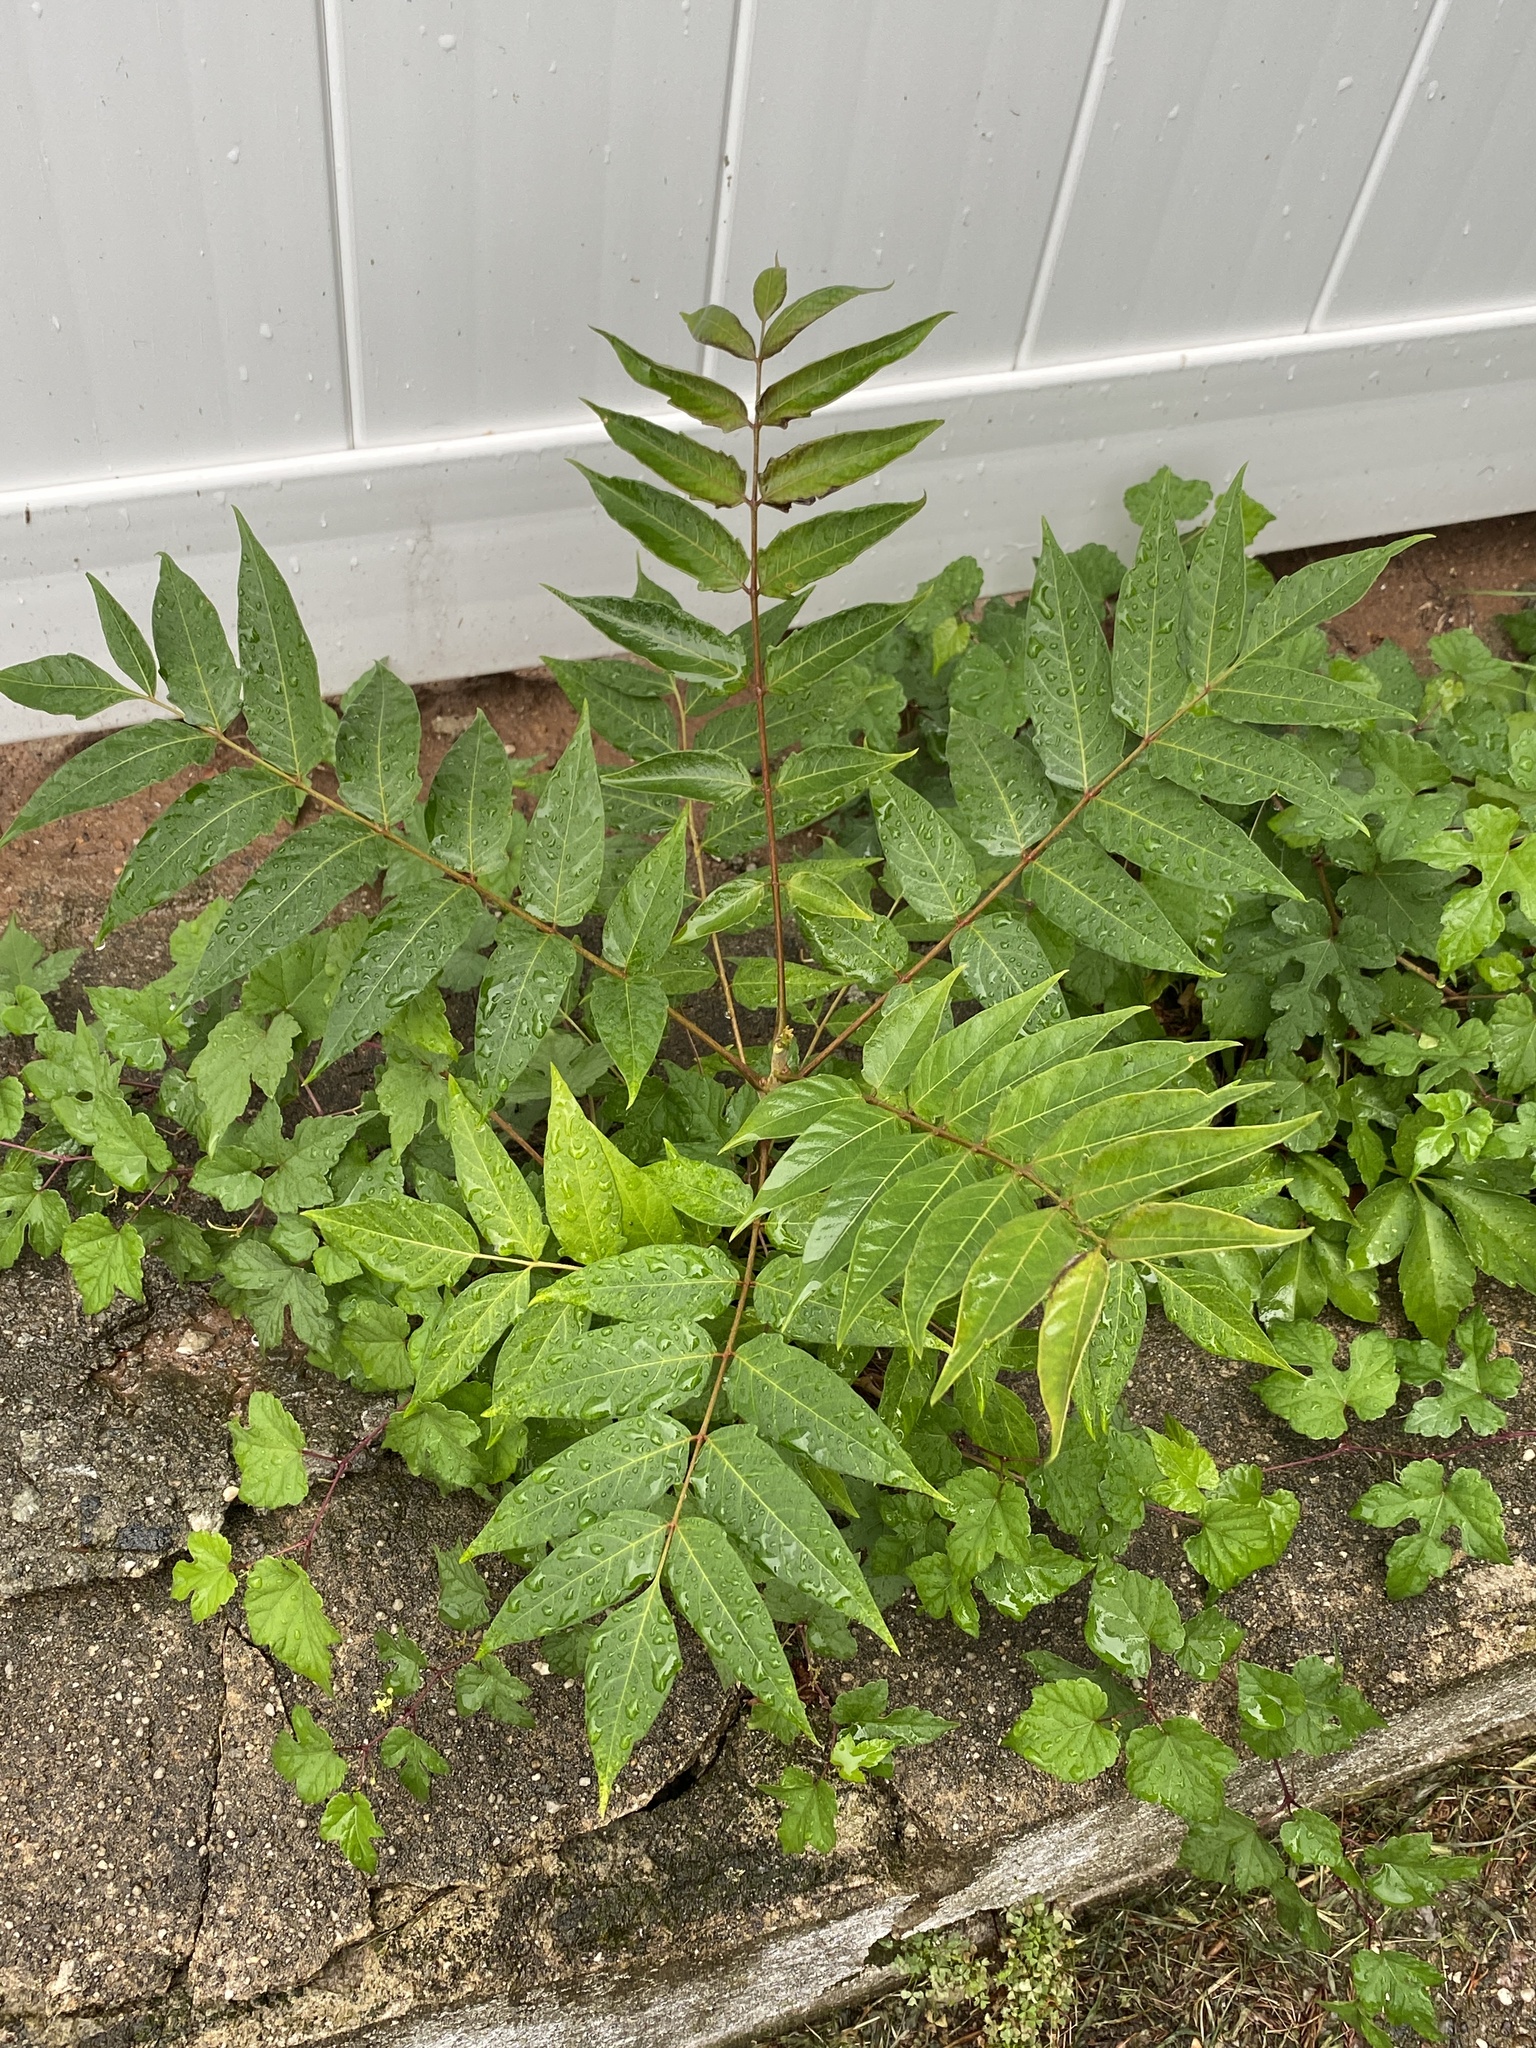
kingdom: Plantae
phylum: Tracheophyta
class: Magnoliopsida
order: Sapindales
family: Simaroubaceae
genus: Ailanthus
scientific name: Ailanthus altissima
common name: Tree-of-heaven
